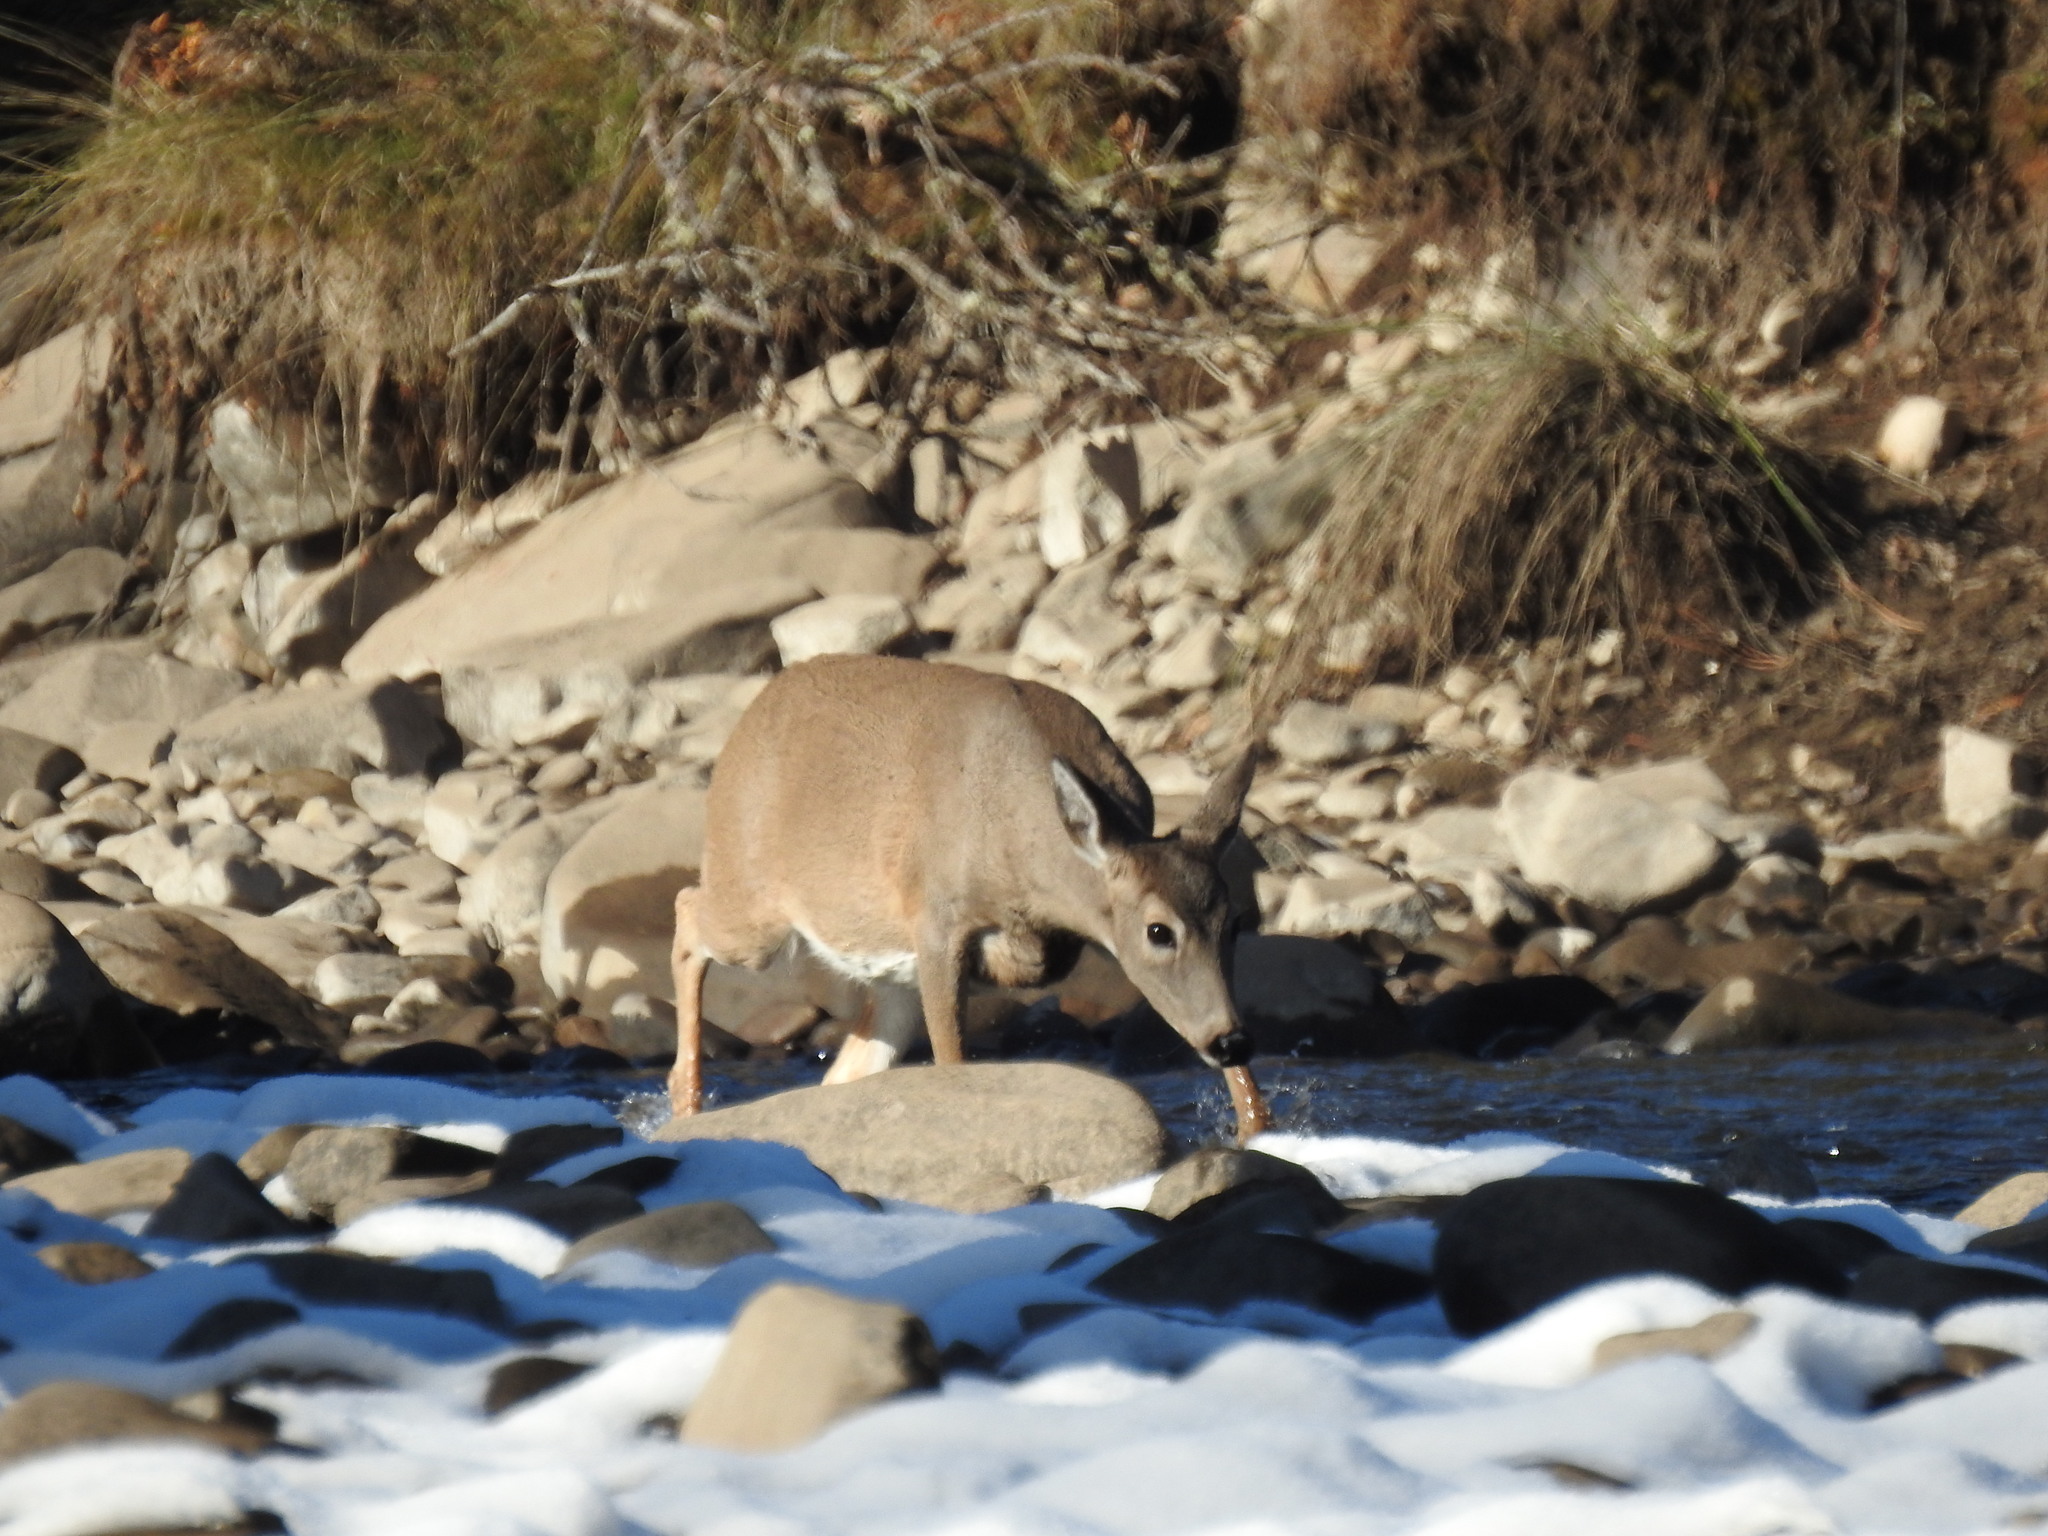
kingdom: Animalia
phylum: Chordata
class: Mammalia
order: Artiodactyla
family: Cervidae
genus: Odocoileus
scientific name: Odocoileus virginianus
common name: White-tailed deer
